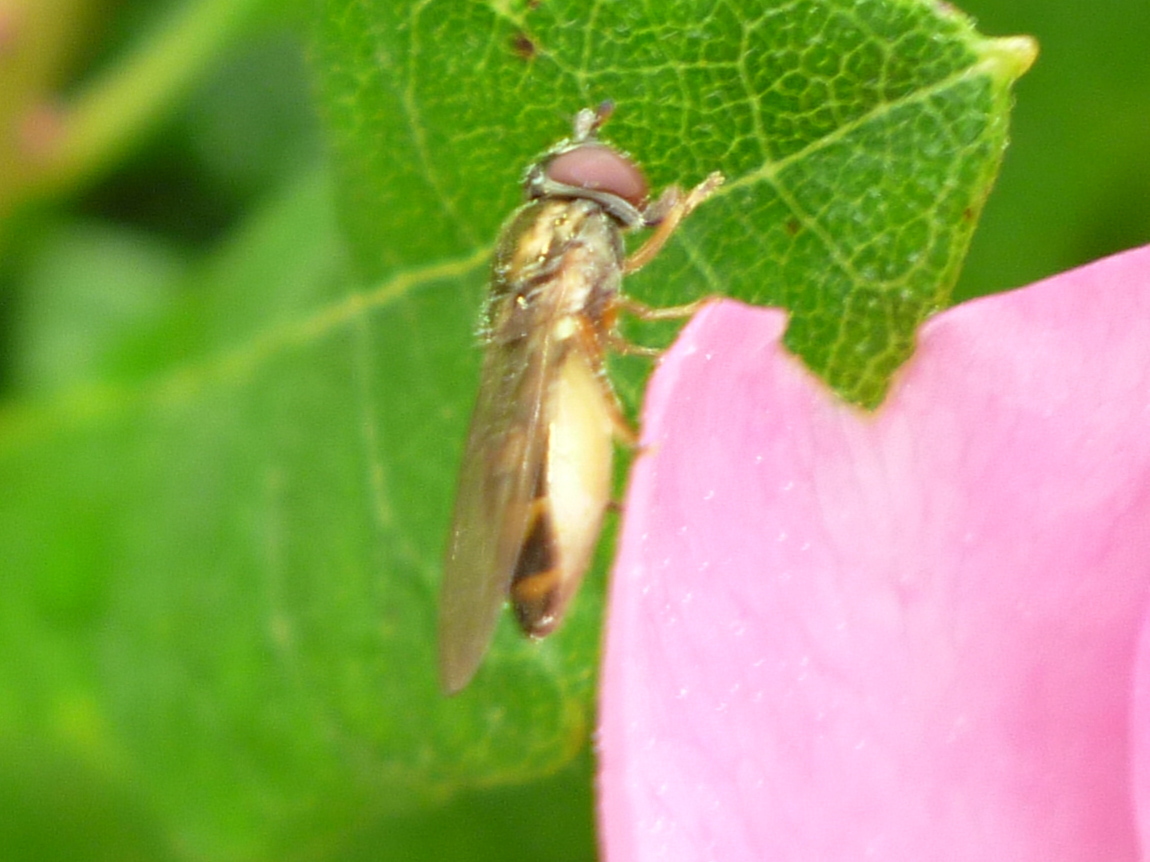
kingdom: Animalia
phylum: Arthropoda
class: Insecta
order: Diptera
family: Syrphidae
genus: Melanostoma
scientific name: Melanostoma mellina
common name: Hover fly
